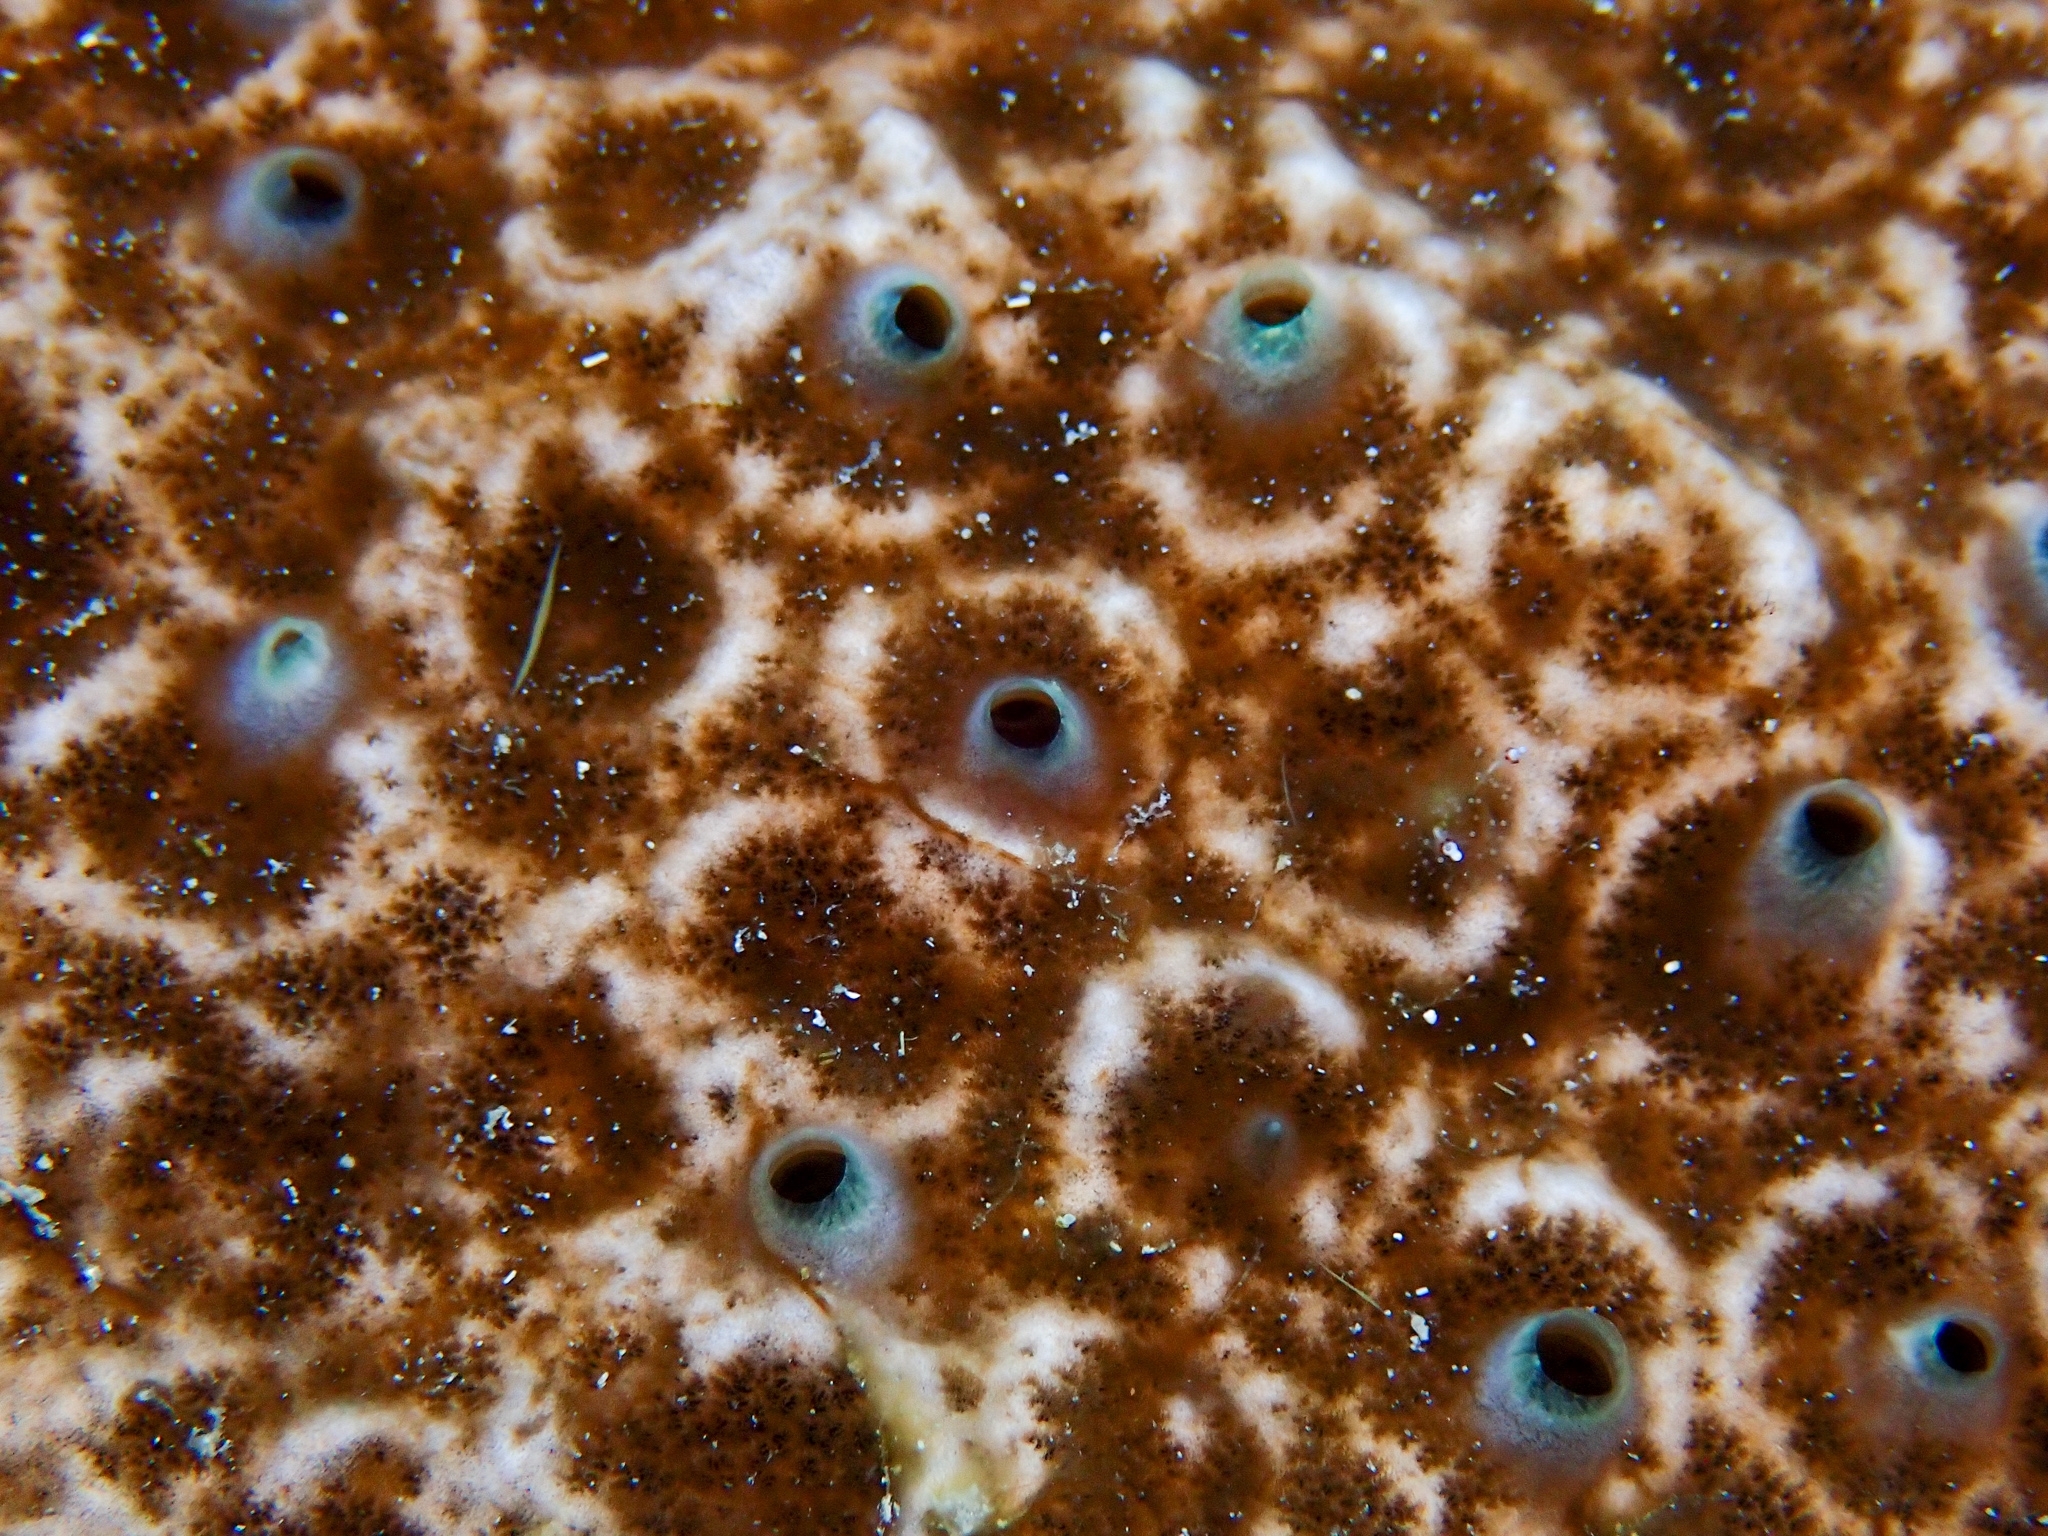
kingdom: Animalia
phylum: Porifera
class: Demospongiae
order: Clionaida
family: Clionaidae
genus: Cliona
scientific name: Cliona caribbaea
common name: Green boring sponge
